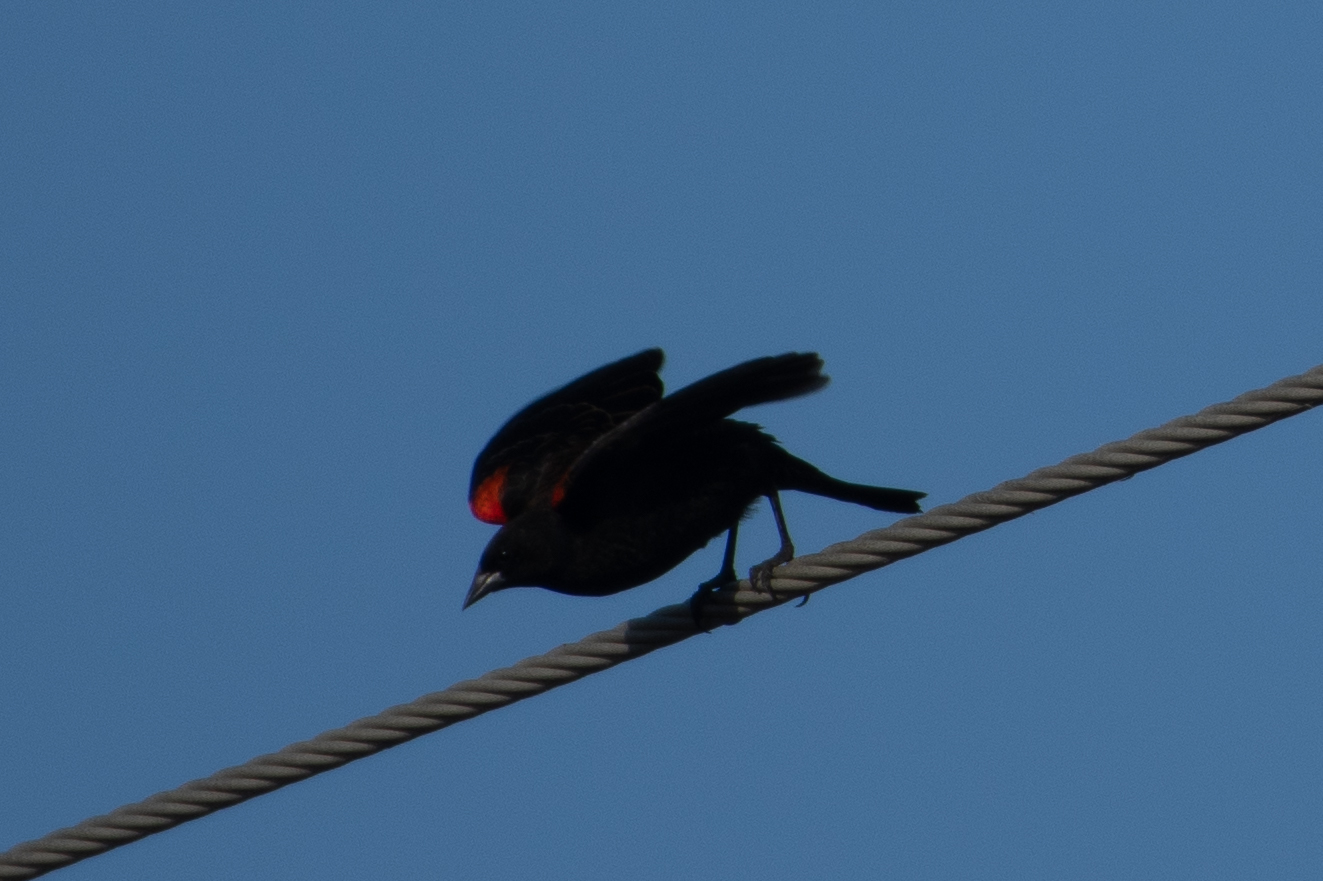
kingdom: Animalia
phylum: Chordata
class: Aves
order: Passeriformes
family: Icteridae
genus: Agelaius
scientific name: Agelaius phoeniceus
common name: Red-winged blackbird
